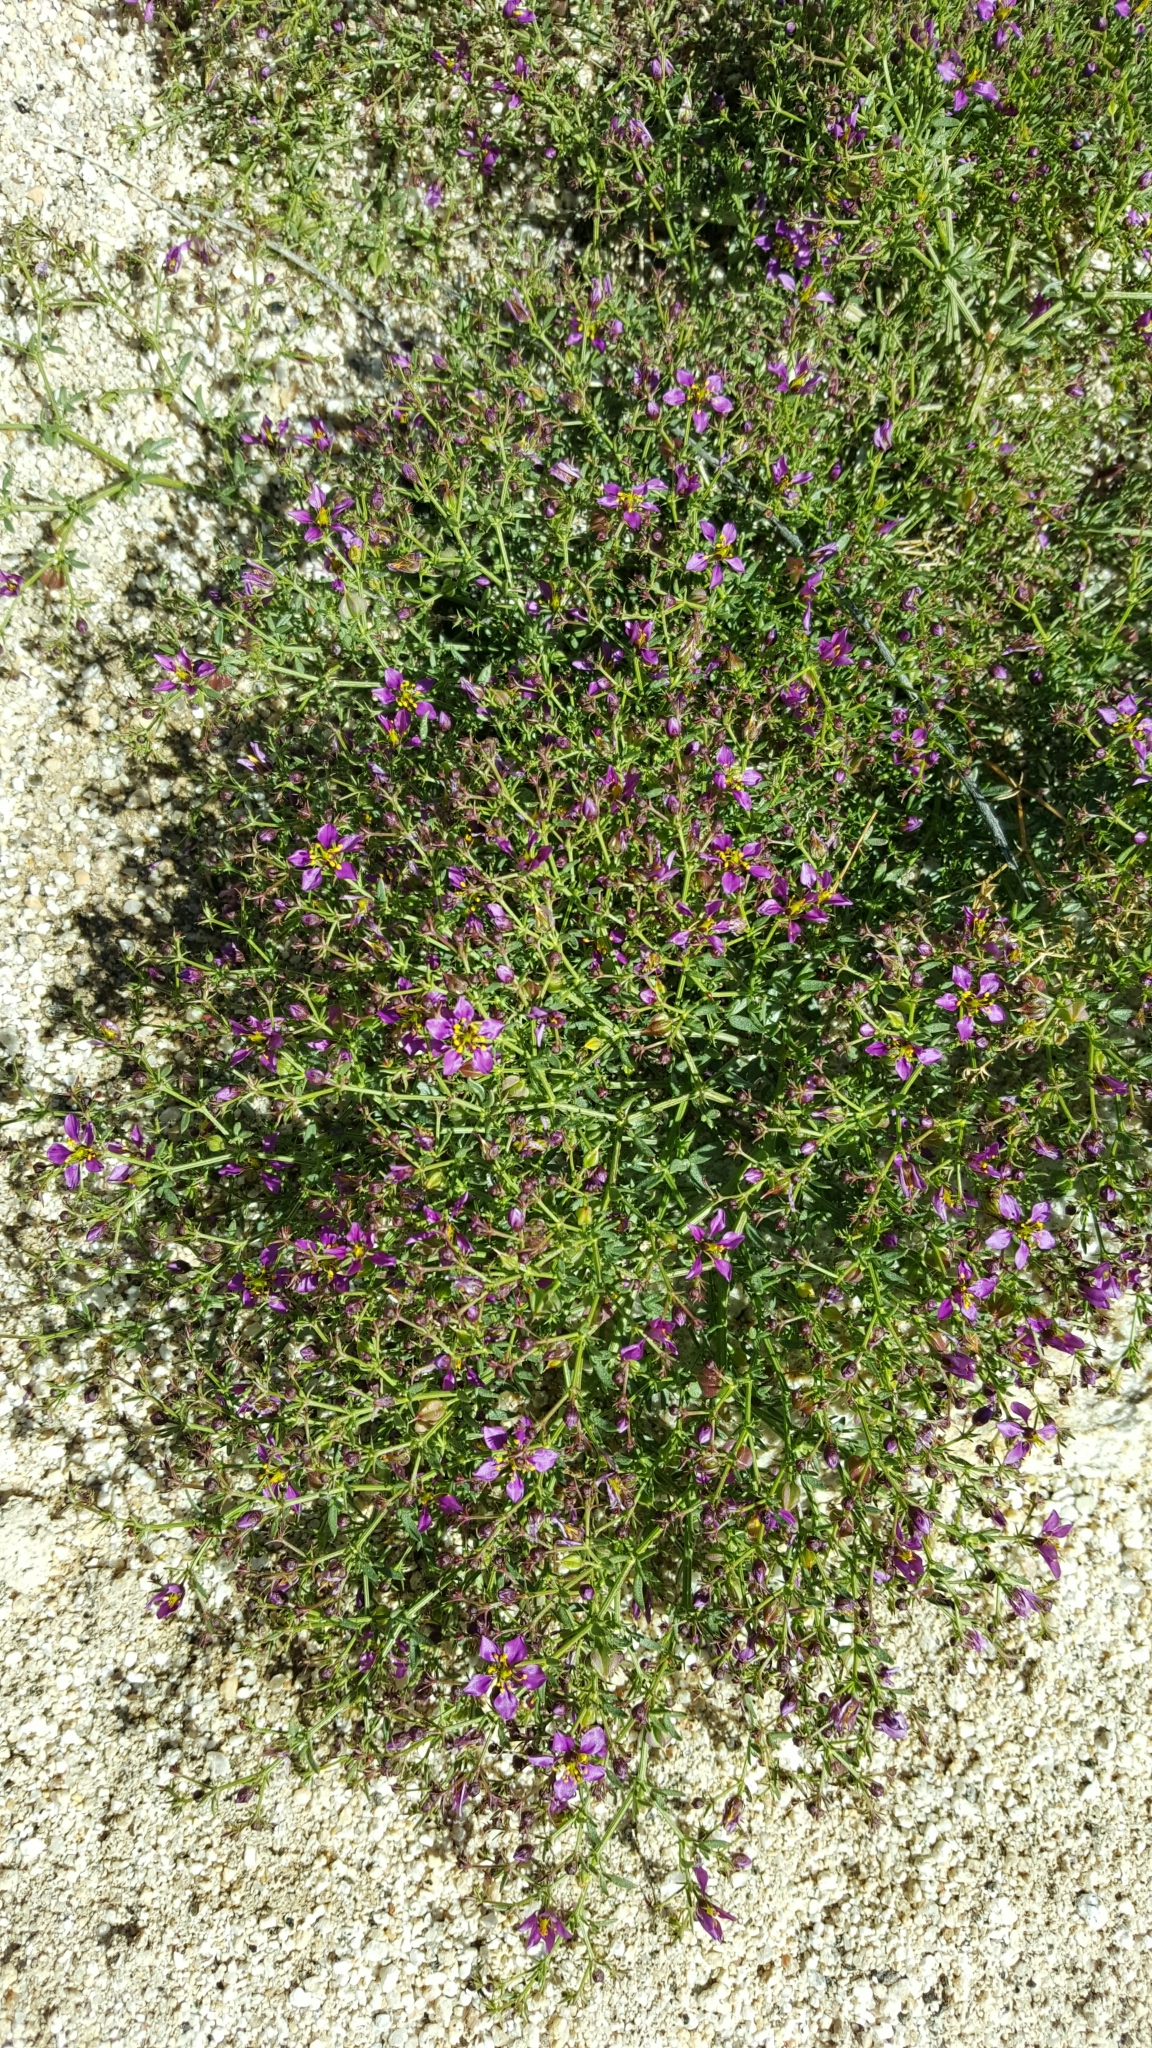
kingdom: Plantae
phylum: Tracheophyta
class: Magnoliopsida
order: Zygophyllales
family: Zygophyllaceae
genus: Fagonia
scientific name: Fagonia laevis
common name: California fagonbush
